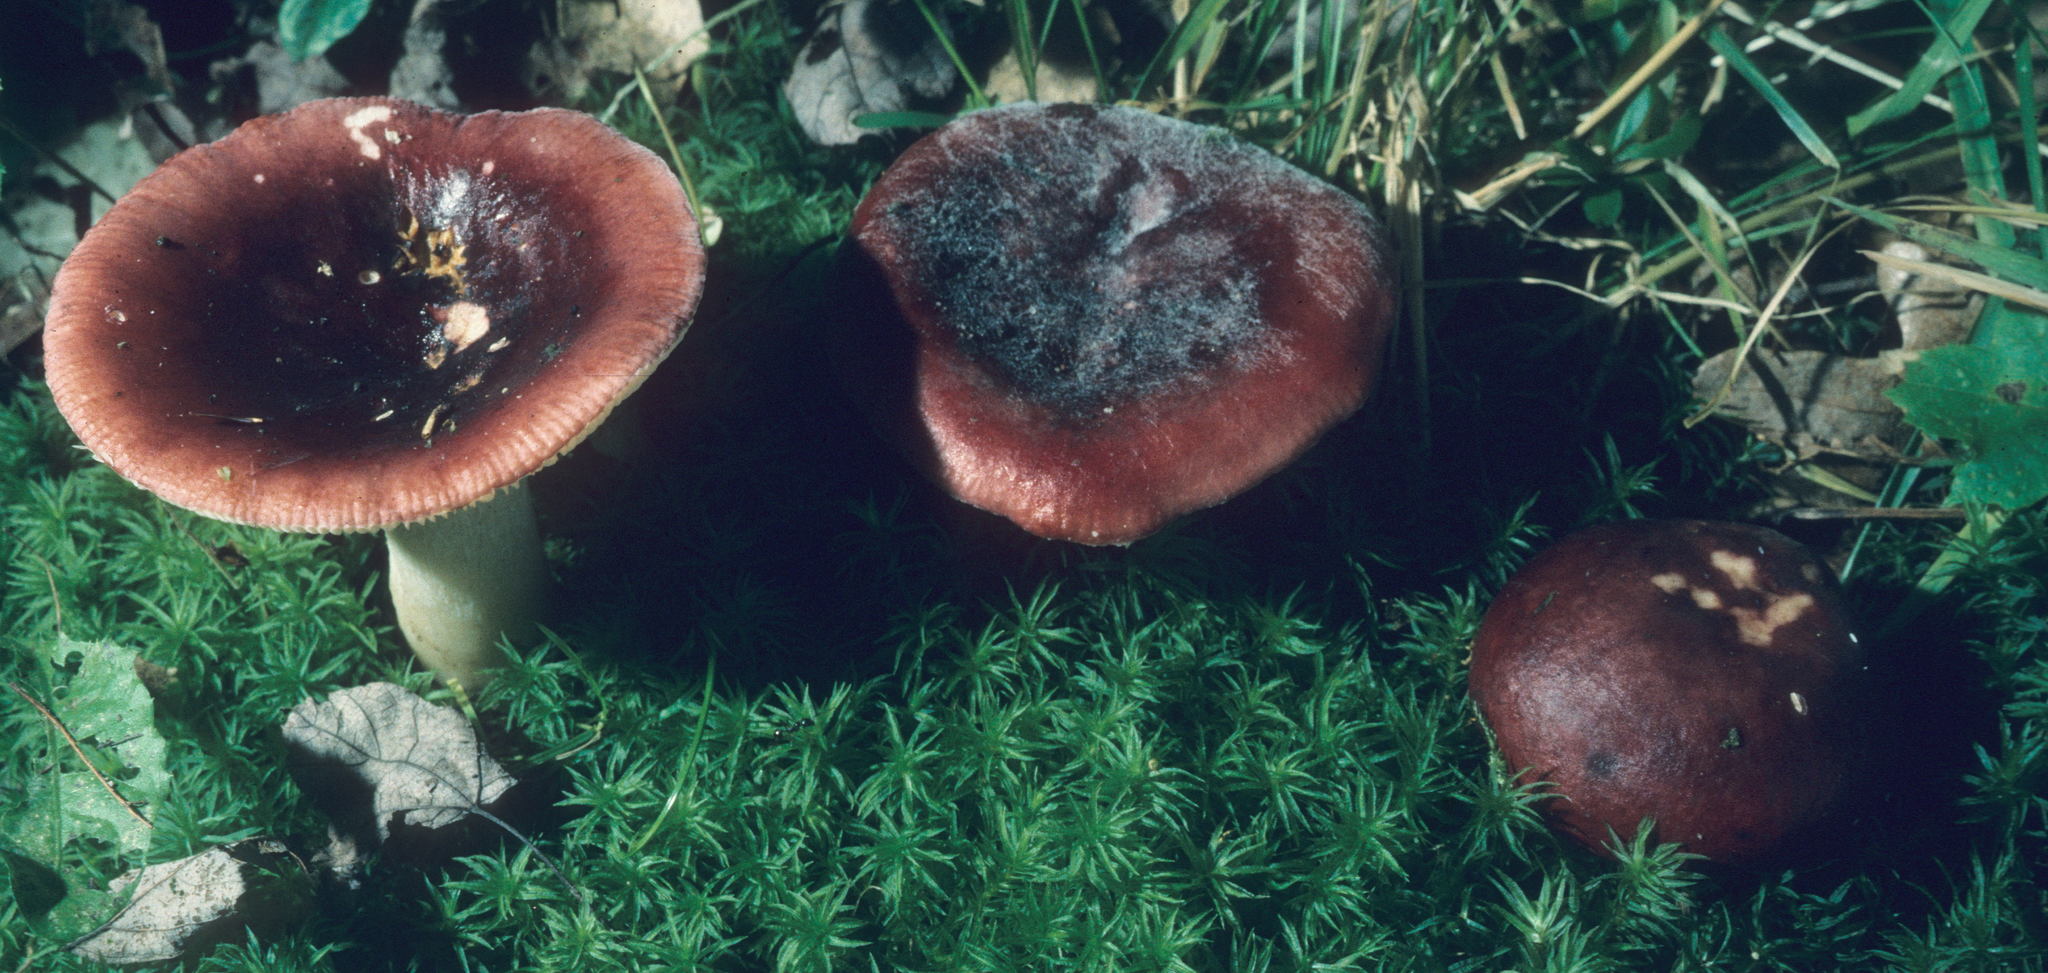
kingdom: Fungi
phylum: Basidiomycota
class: Agaricomycetes
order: Russulales
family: Russulaceae
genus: Russula
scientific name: Russula vinacea
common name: Blackish-red russula
